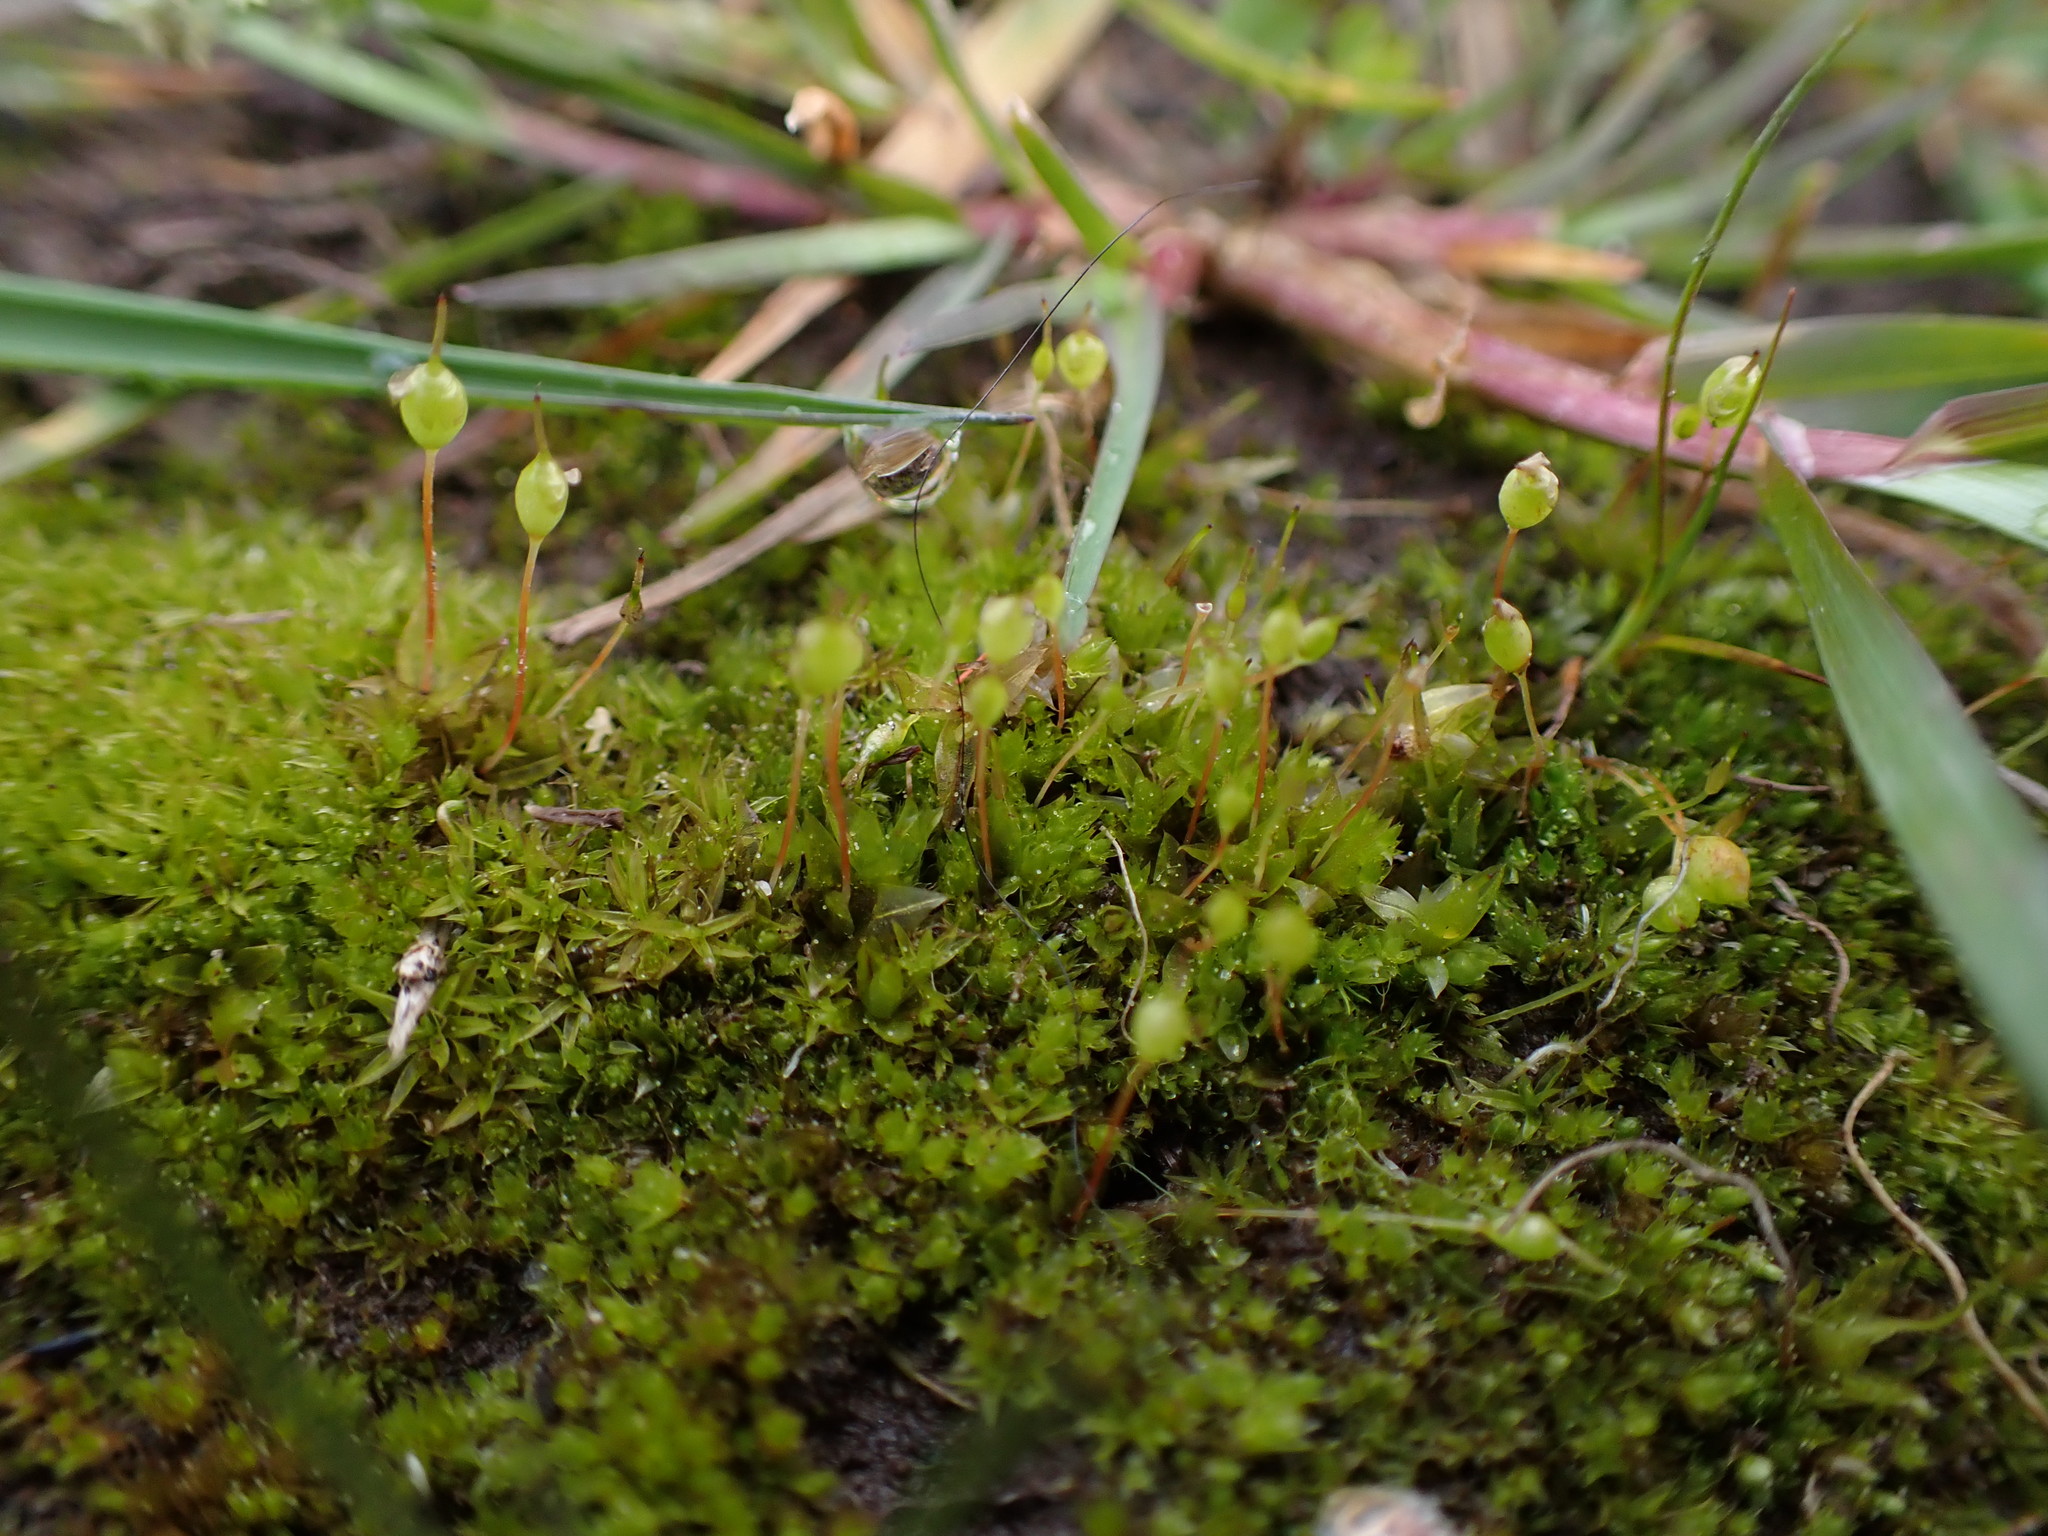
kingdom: Plantae
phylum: Bryophyta
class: Bryopsida
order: Funariales
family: Funariaceae
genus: Physcomitrium
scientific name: Physcomitrium pyriforme
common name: Common bladder-moss
